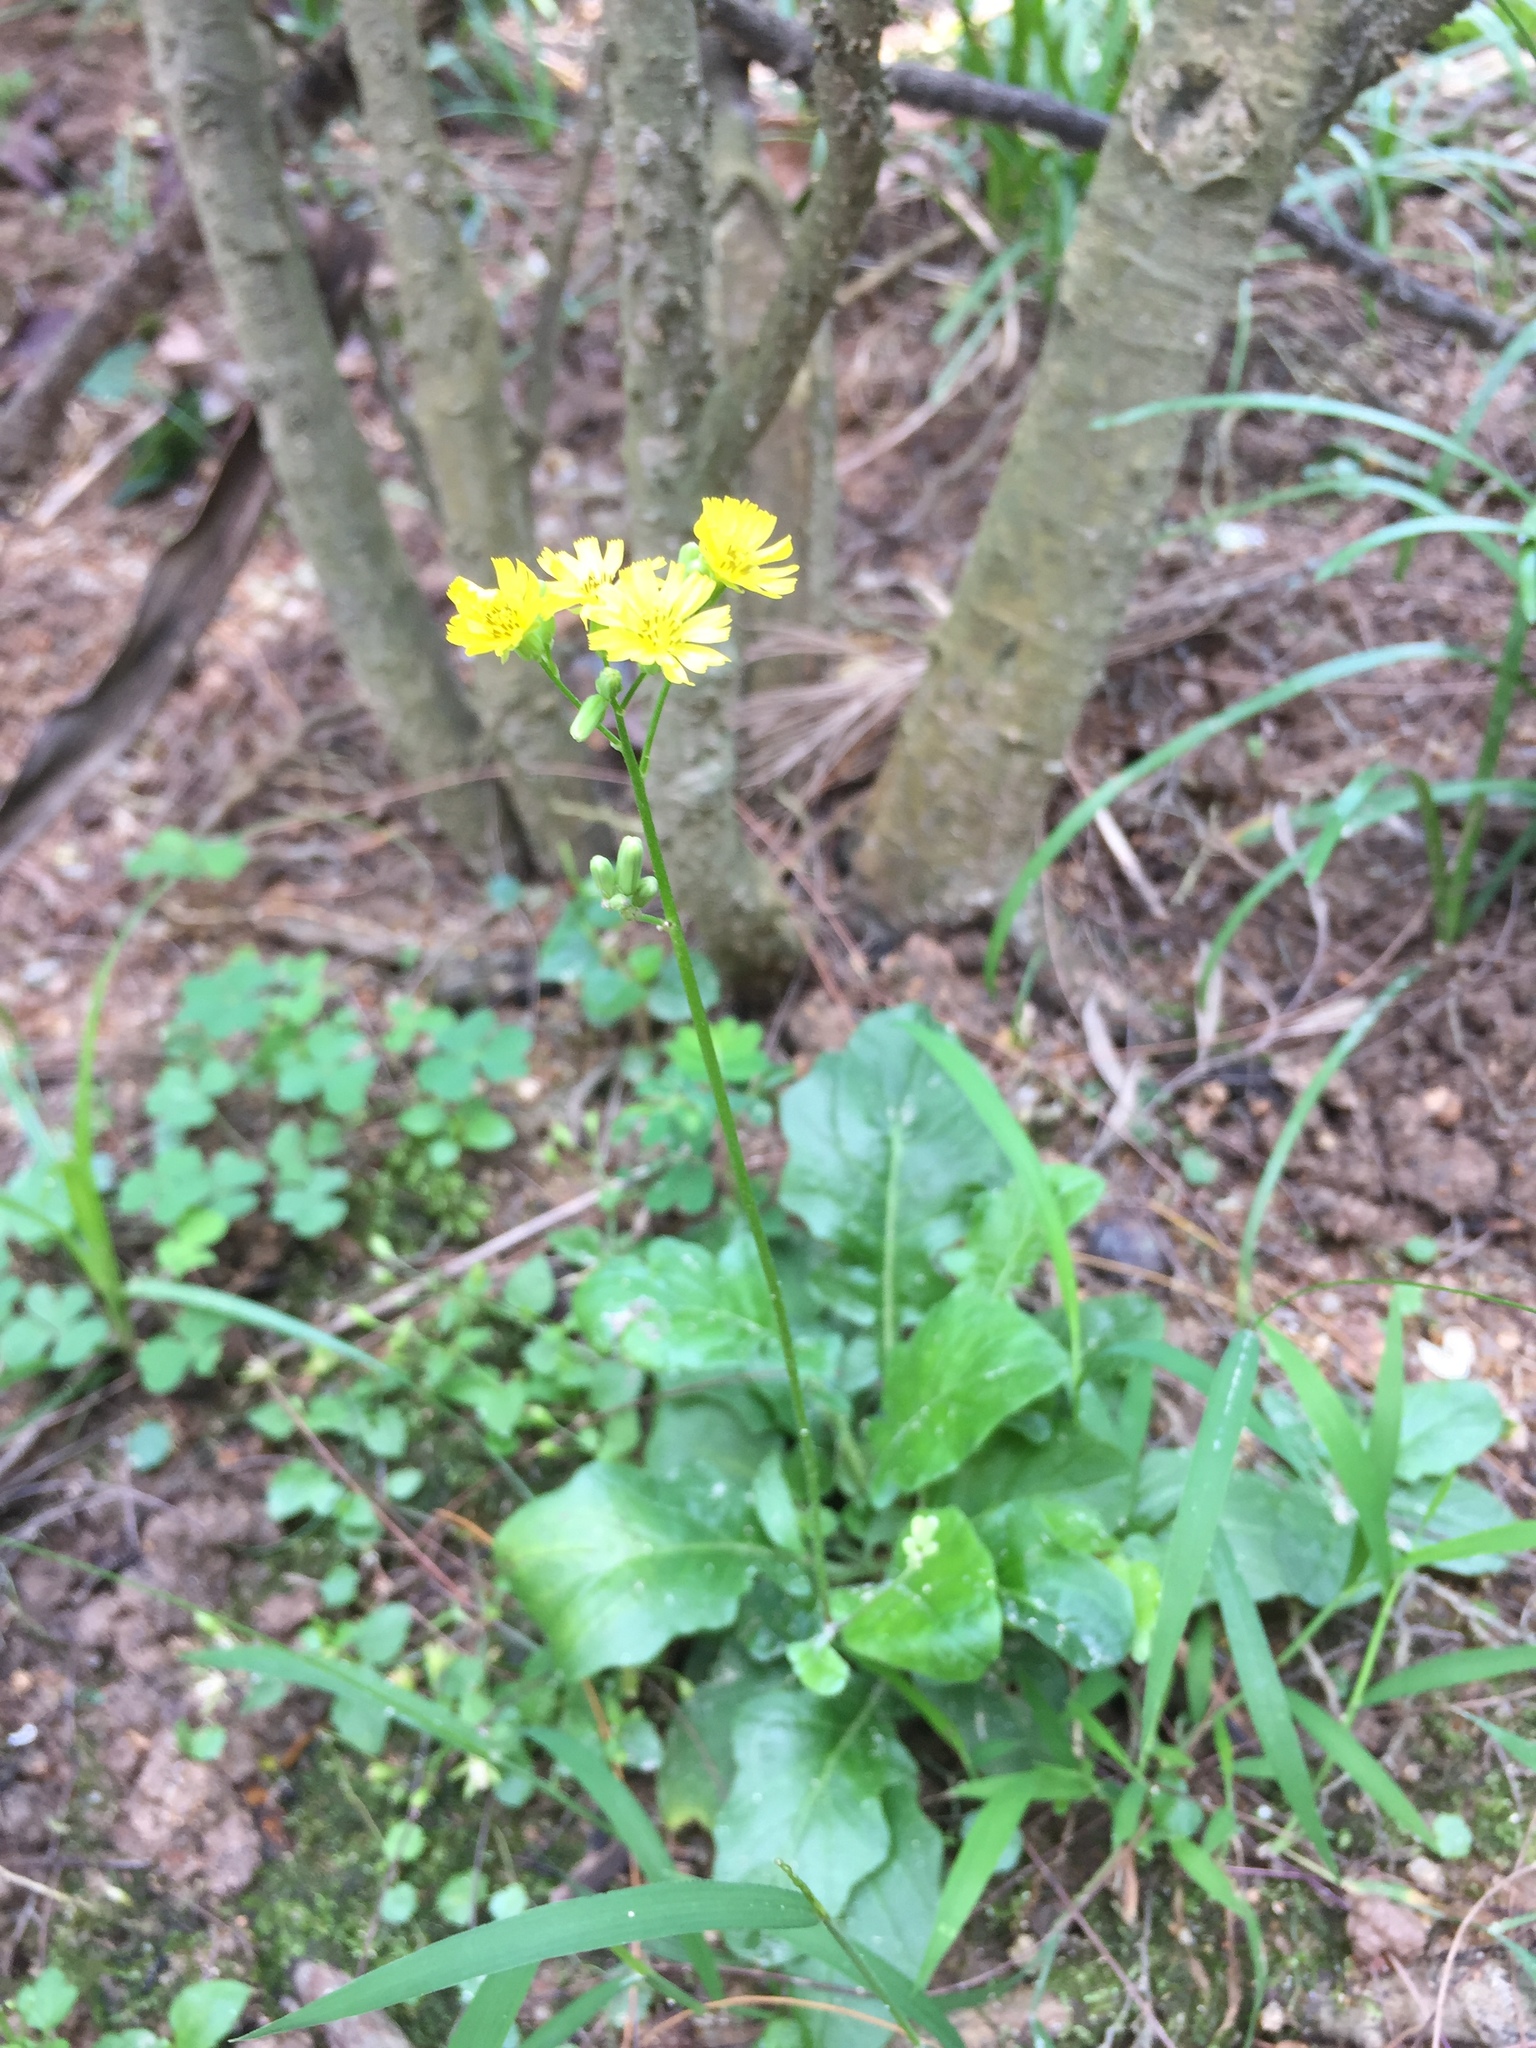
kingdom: Plantae
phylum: Tracheophyta
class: Magnoliopsida
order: Asterales
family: Asteraceae
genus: Youngia
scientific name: Youngia japonica
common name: Oriental false hawksbeard
